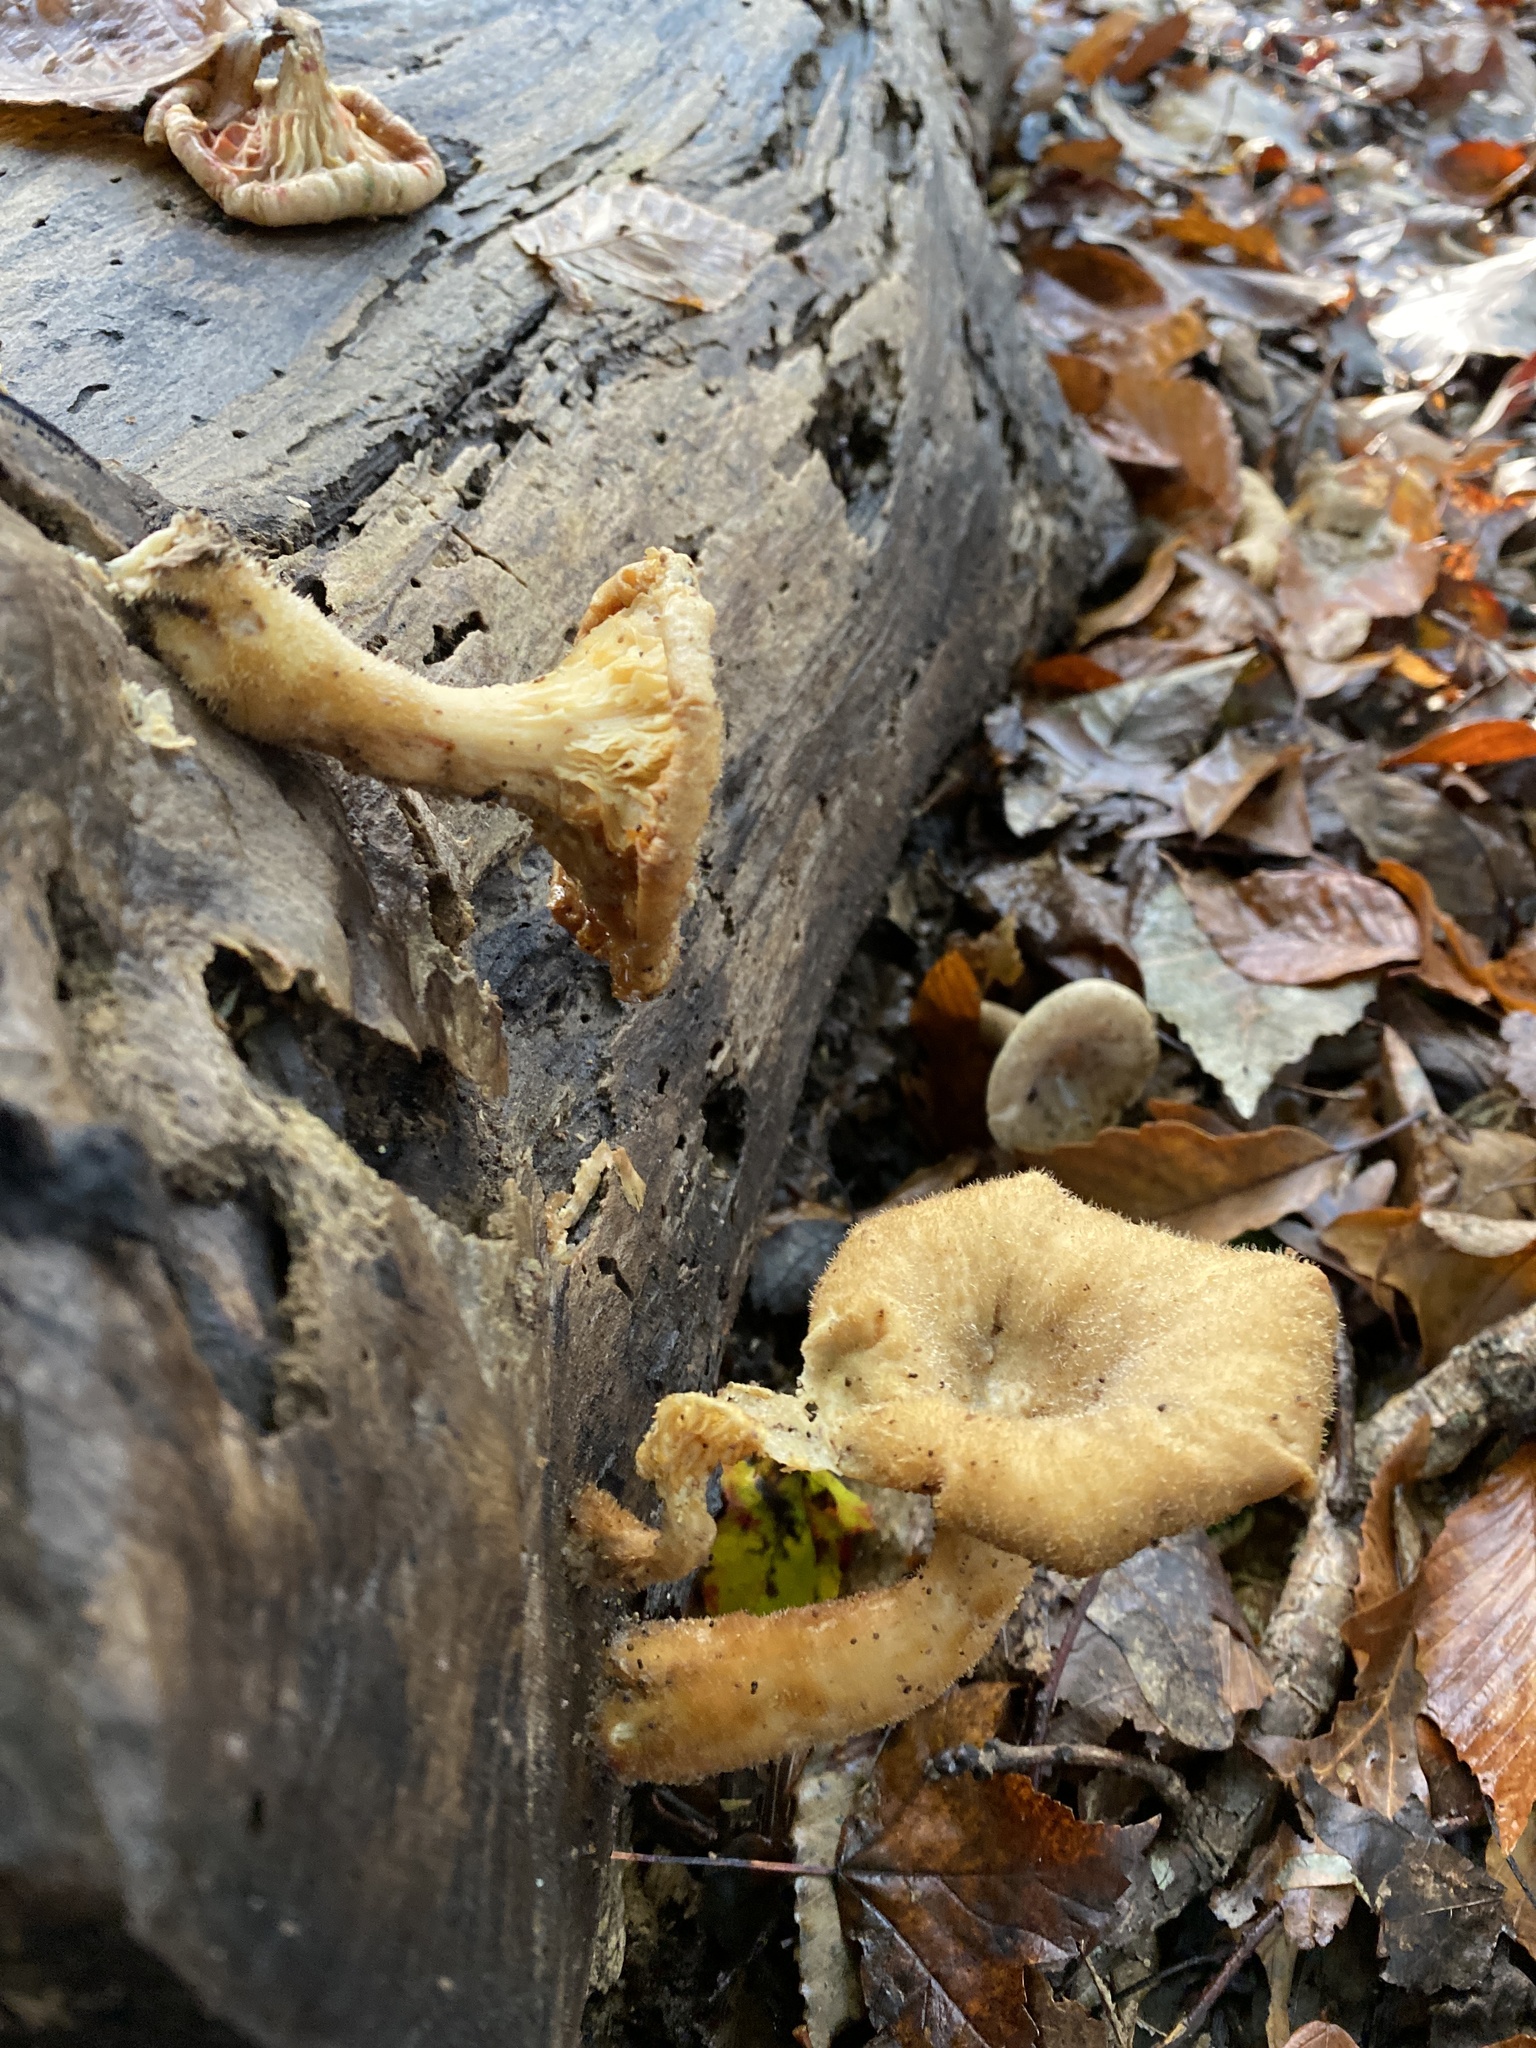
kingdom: Fungi
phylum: Basidiomycota
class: Agaricomycetes
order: Polyporales
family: Polyporaceae
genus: Lentinus
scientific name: Lentinus levis
